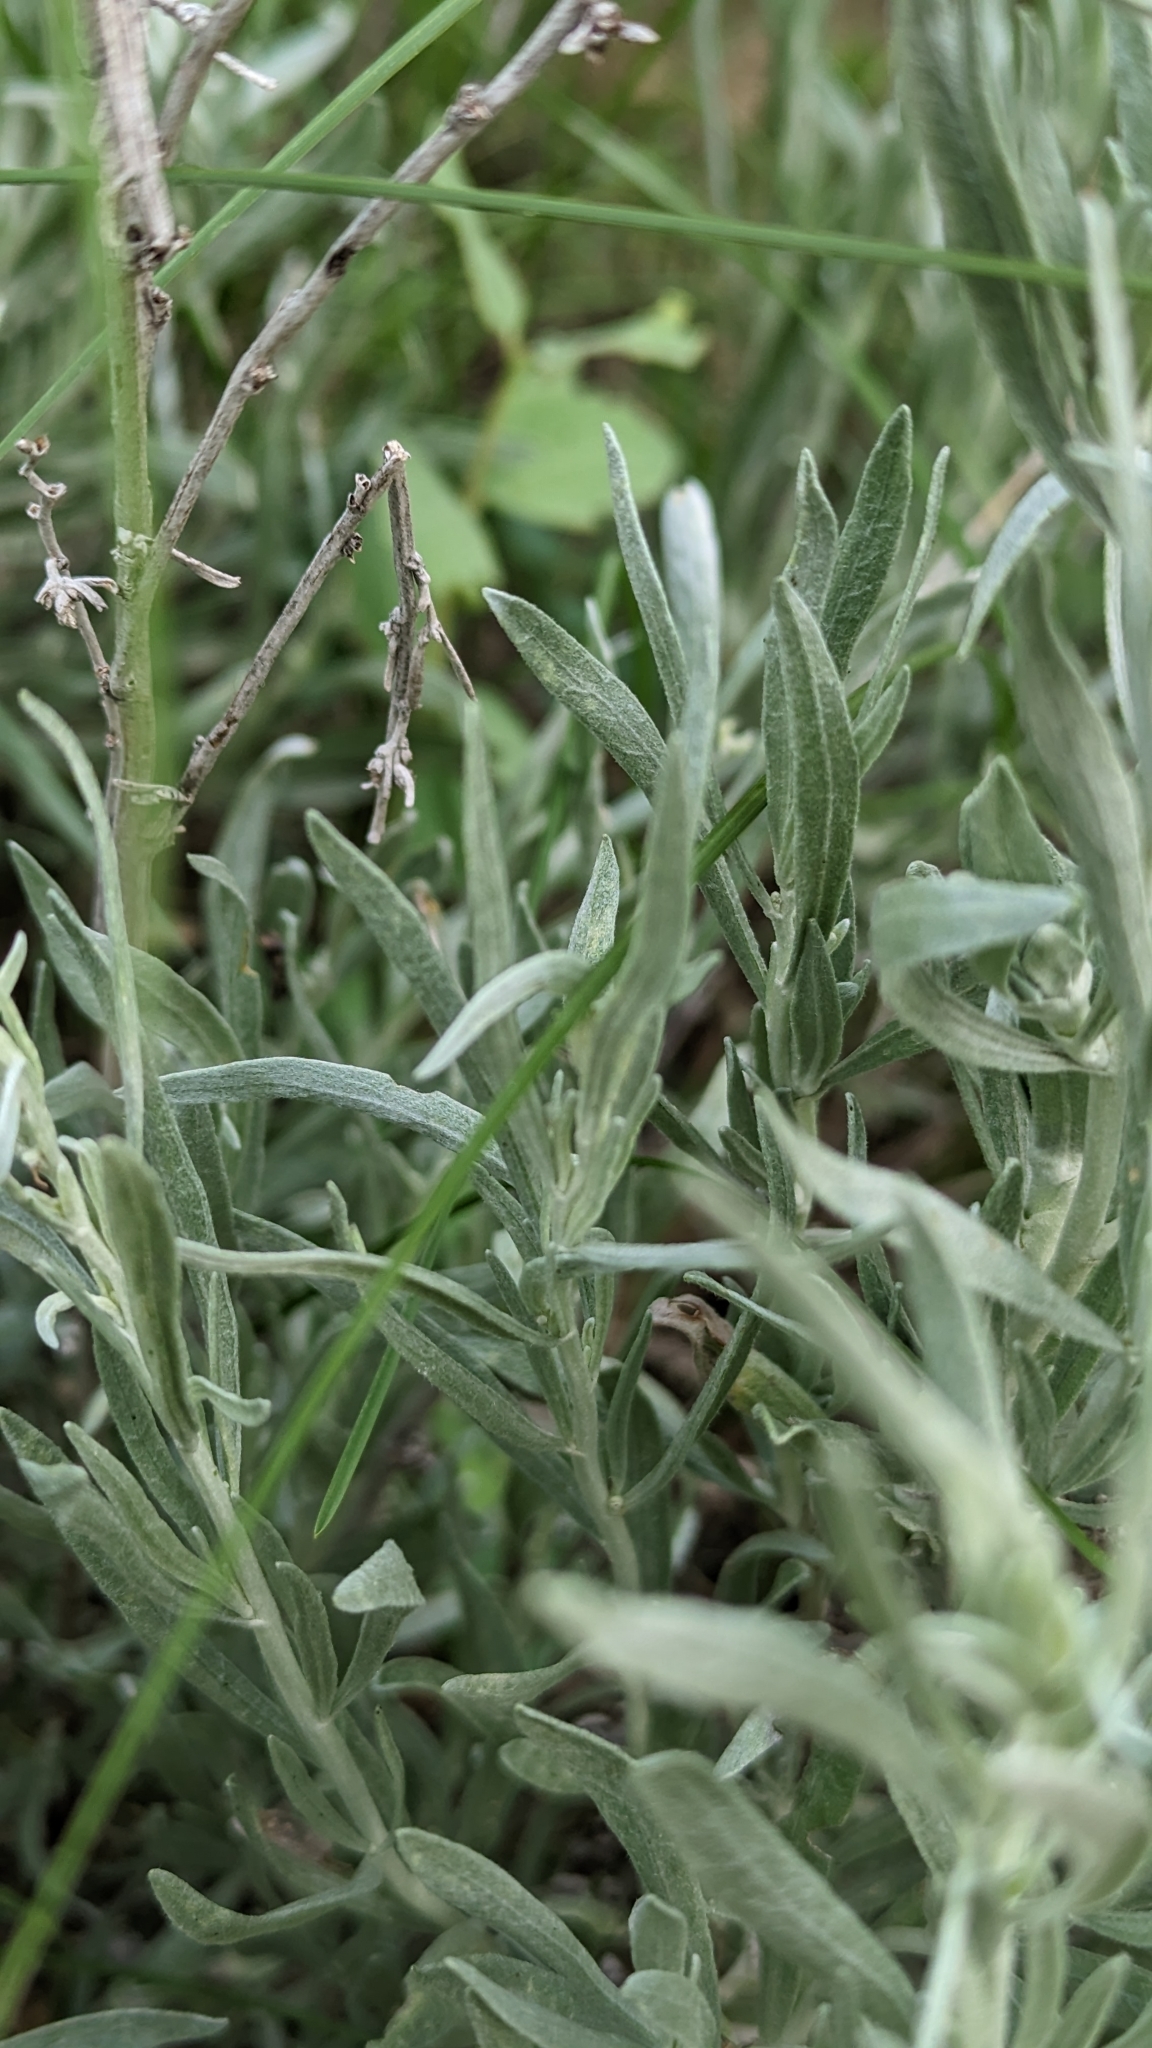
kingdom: Plantae
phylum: Tracheophyta
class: Magnoliopsida
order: Asterales
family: Asteraceae
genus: Artemisia
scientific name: Artemisia cana
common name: Silver sagebrush
